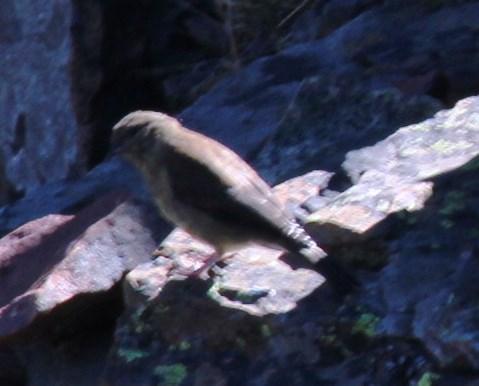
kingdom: Animalia
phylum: Chordata
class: Aves
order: Passeriformes
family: Fringillidae
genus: Crithagra
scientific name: Crithagra totta
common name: Cape siskin
